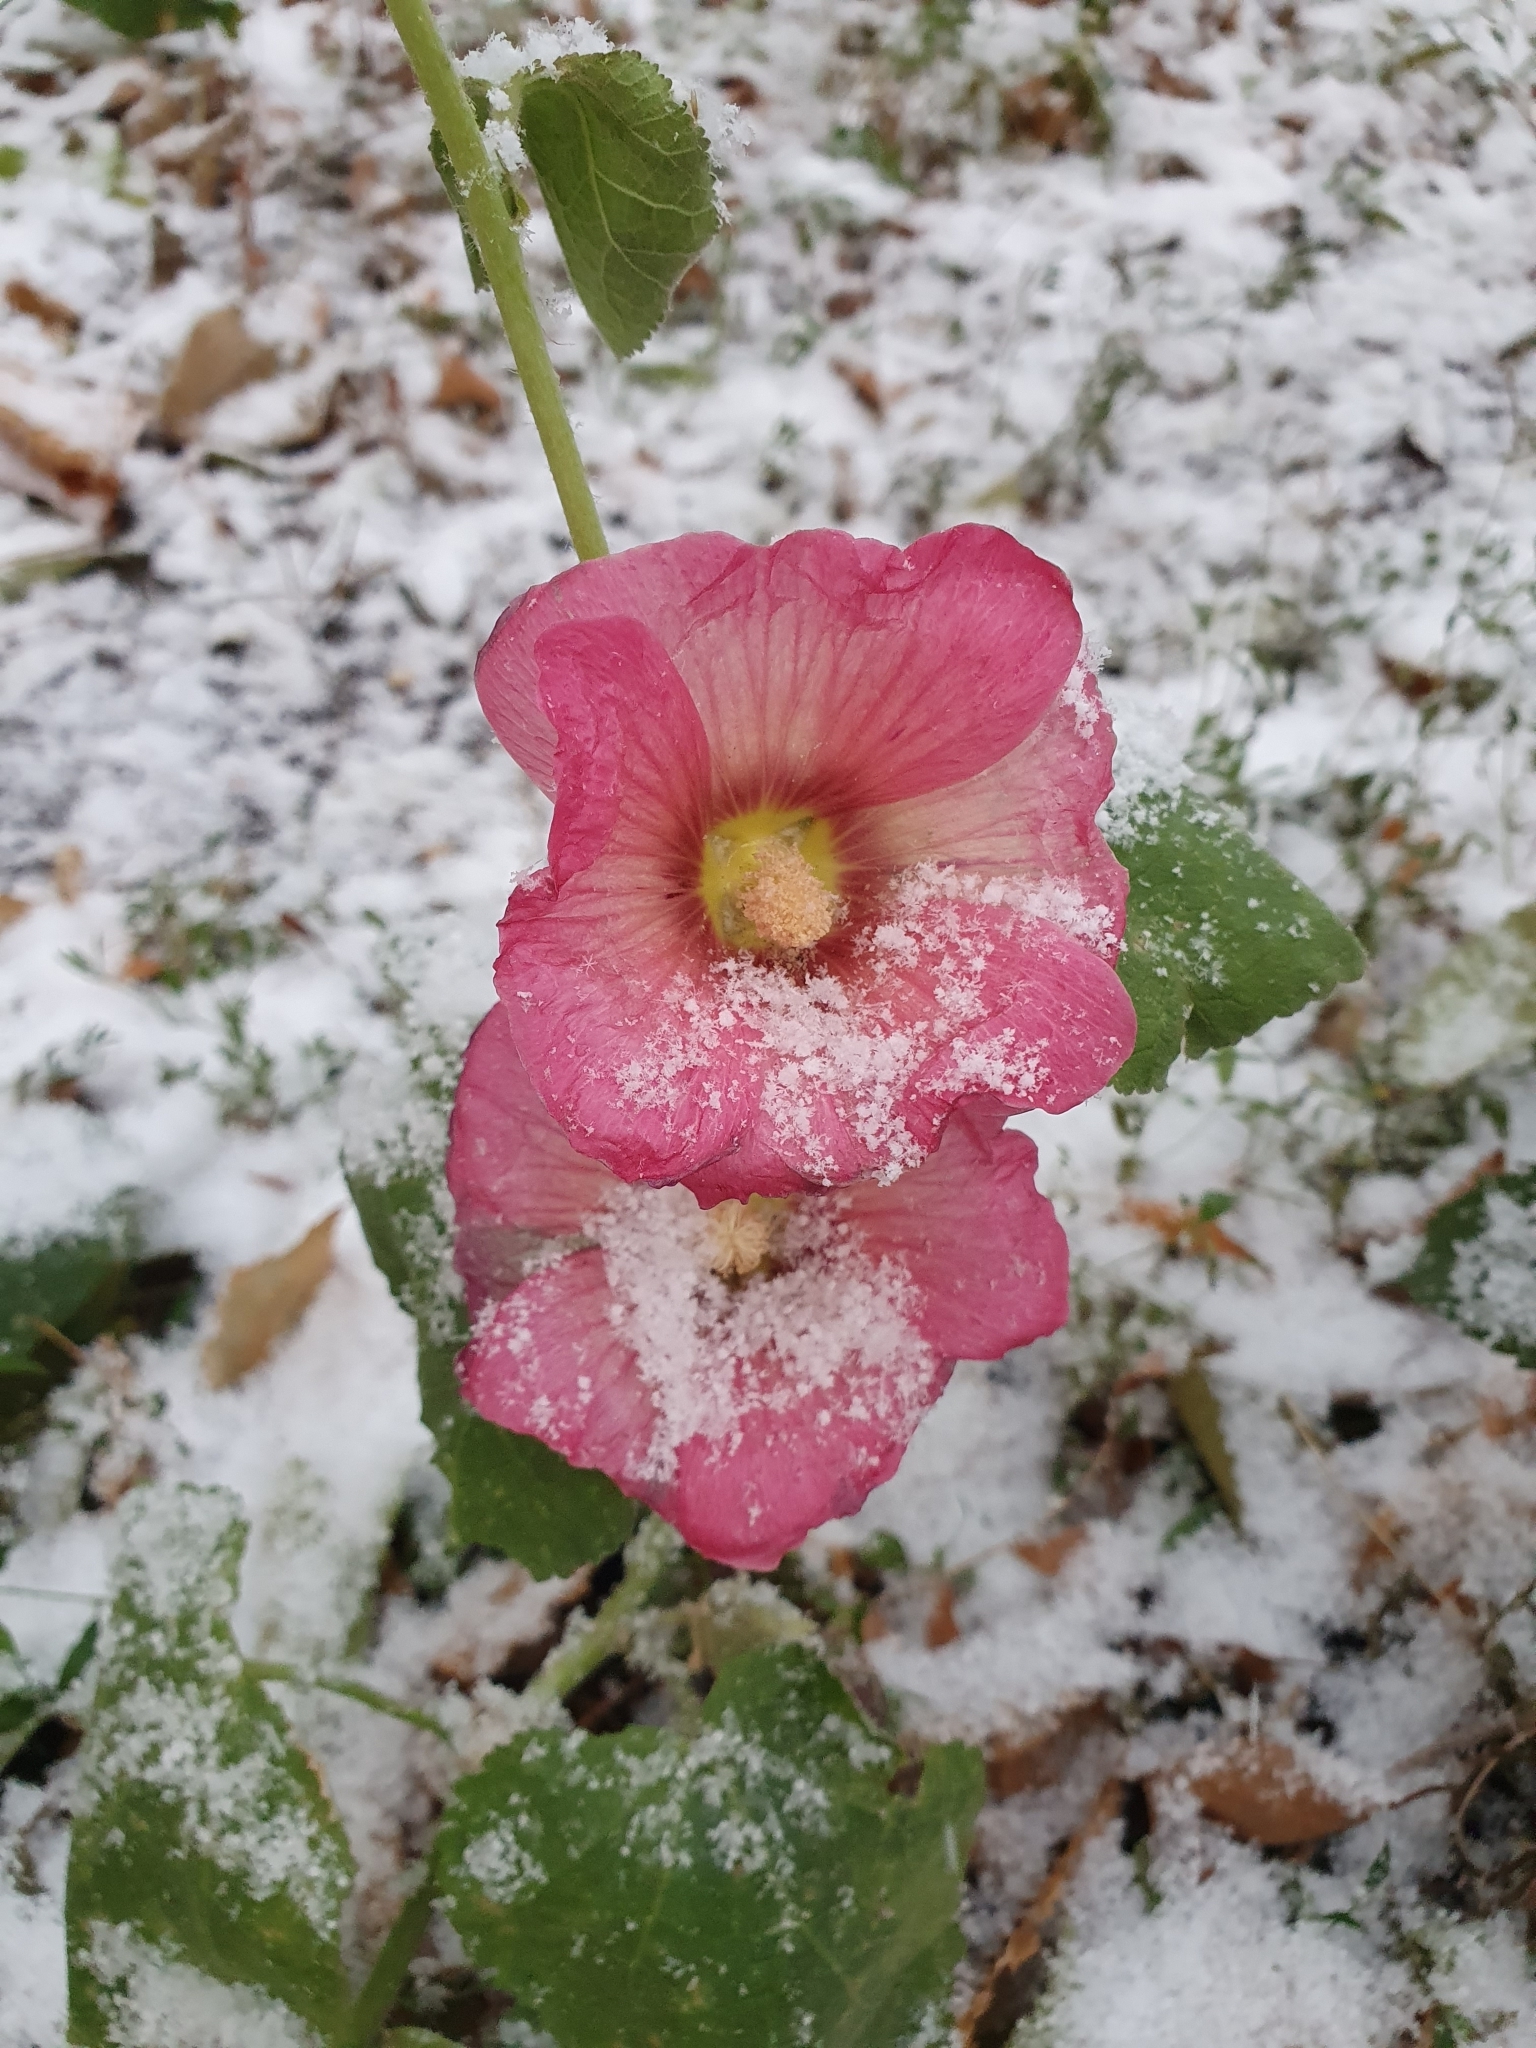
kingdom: Plantae
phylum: Tracheophyta
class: Magnoliopsida
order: Malvales
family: Malvaceae
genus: Alcea
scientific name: Alcea rosea
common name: Hollyhock
